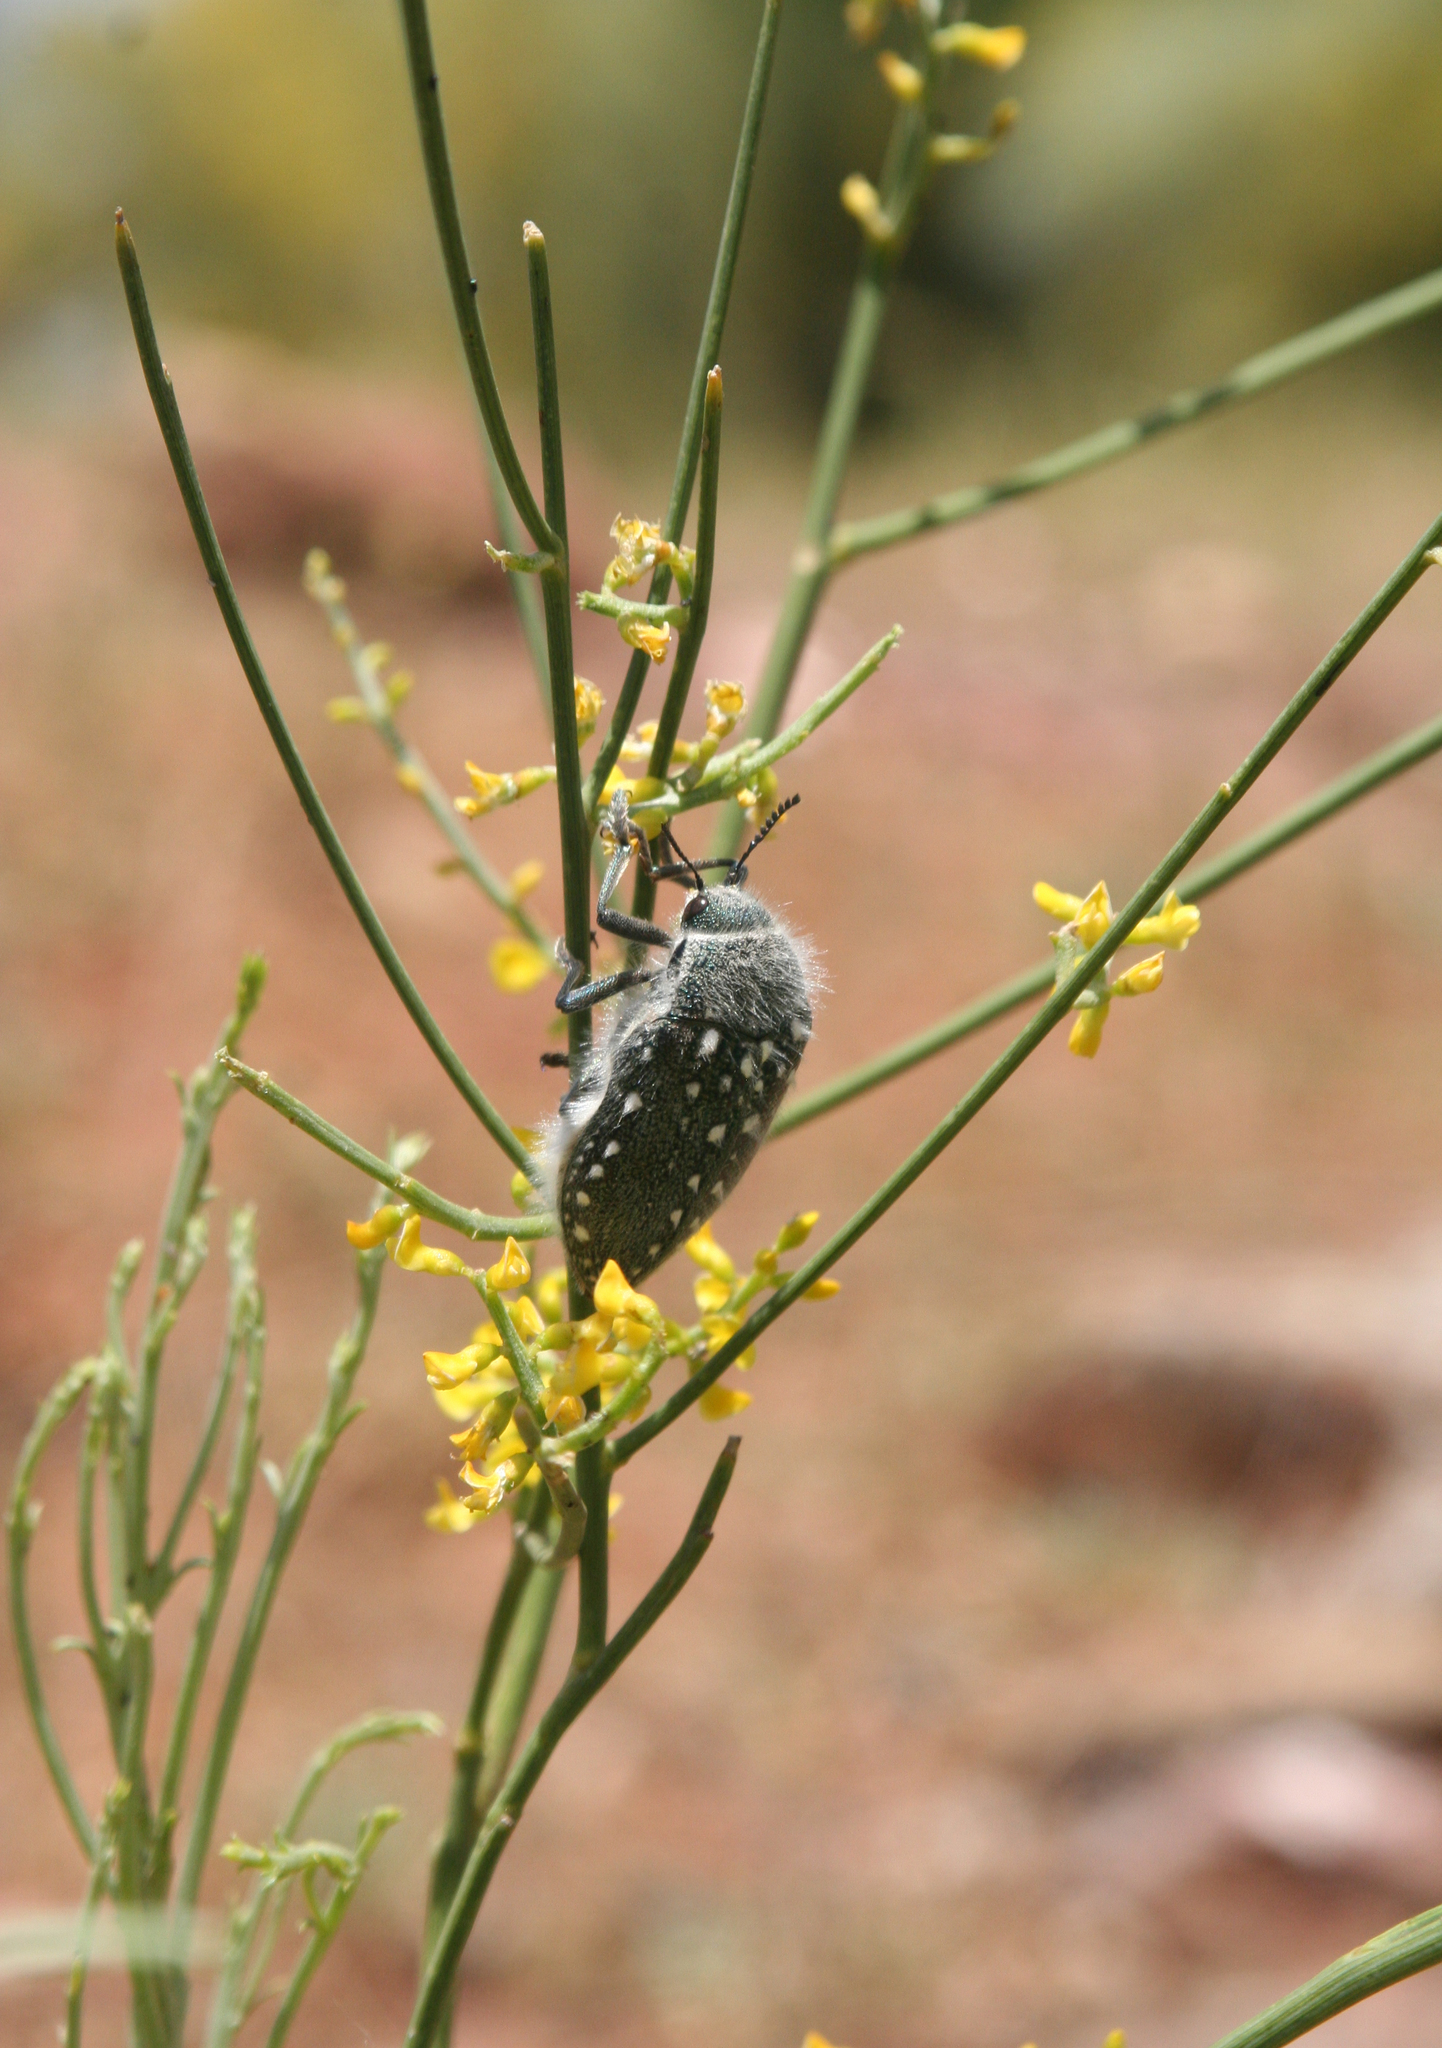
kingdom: Plantae
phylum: Tracheophyta
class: Magnoliopsida
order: Fabales
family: Fabaceae
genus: Retama
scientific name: Retama sphaerocarpa
